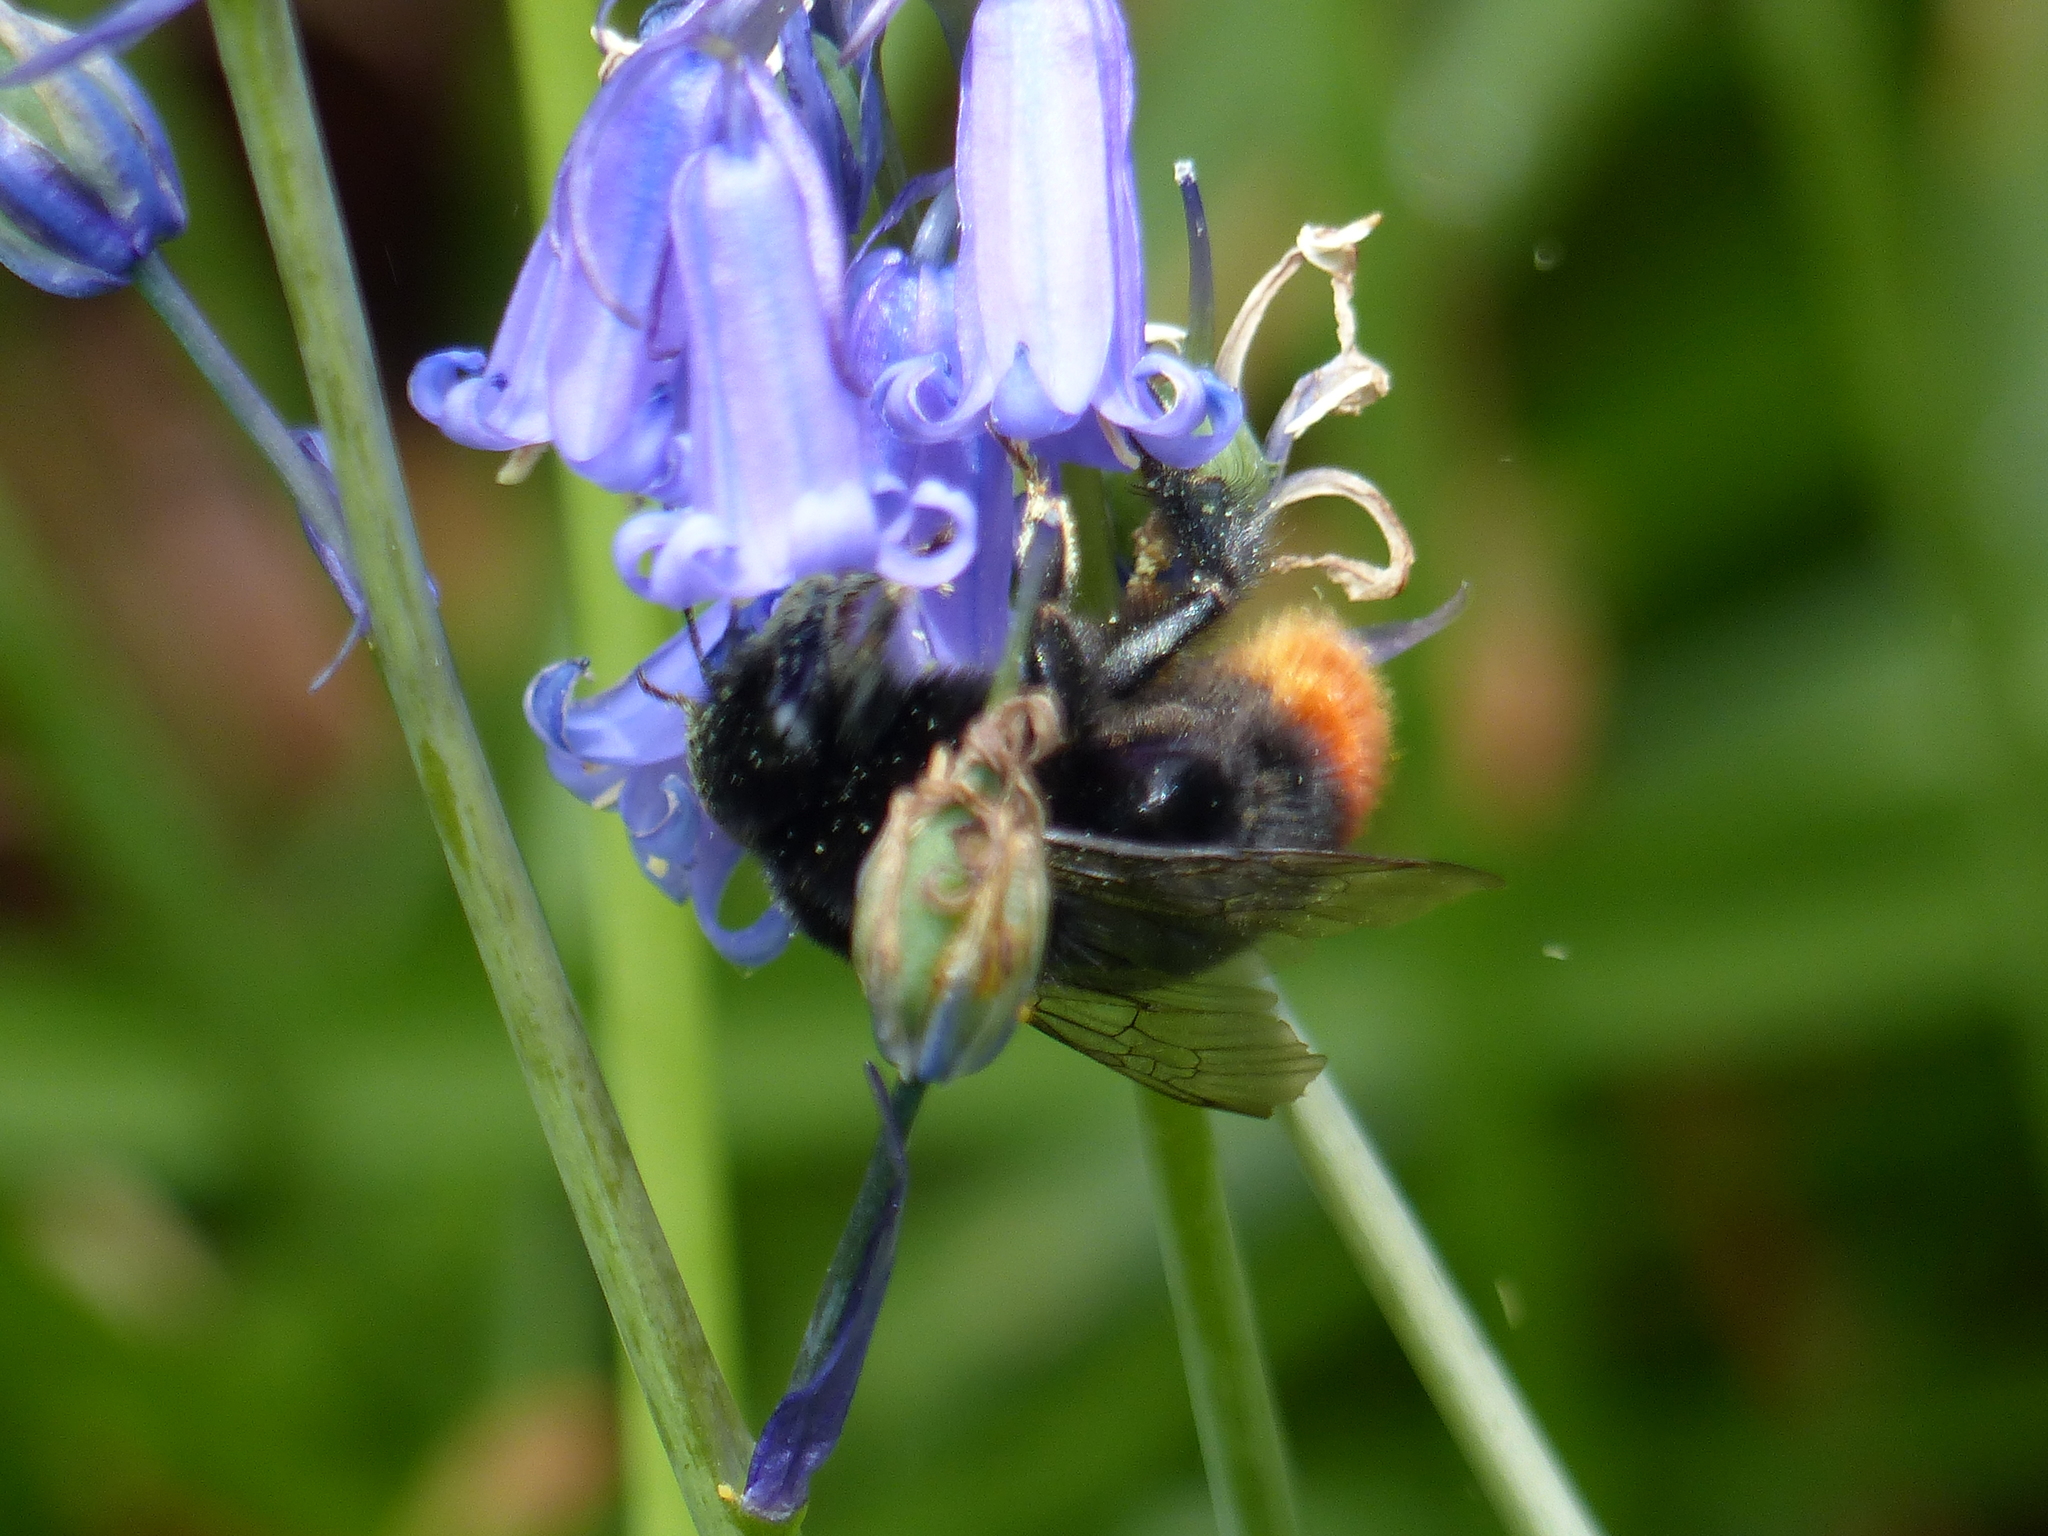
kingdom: Animalia
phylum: Arthropoda
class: Insecta
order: Hymenoptera
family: Apidae
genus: Bombus
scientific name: Bombus lapidarius
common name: Large red-tailed humble-bee
